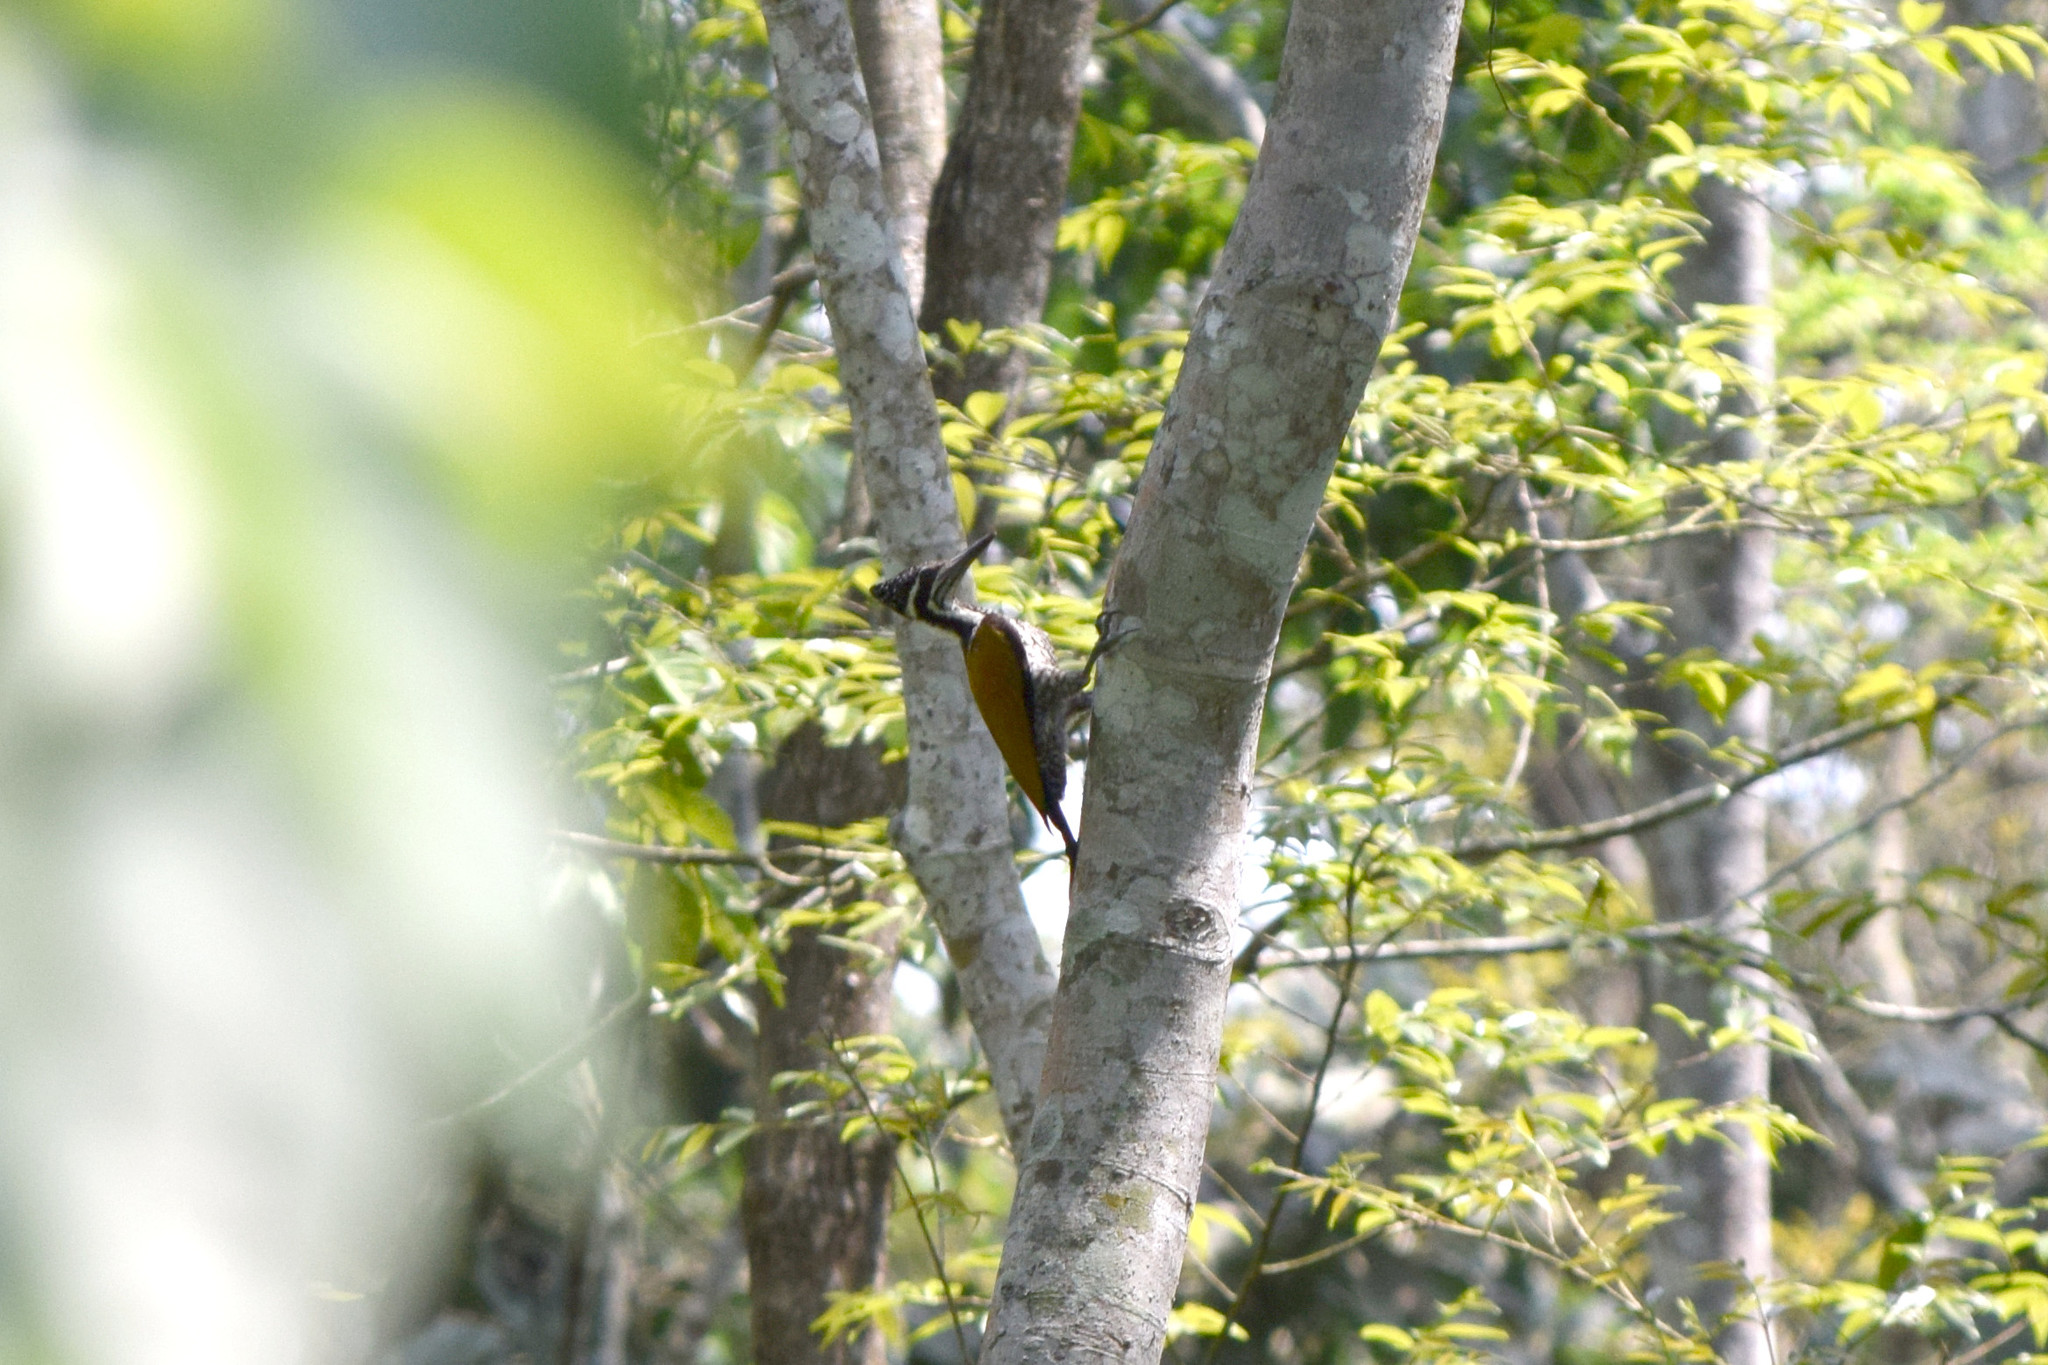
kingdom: Animalia
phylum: Chordata
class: Aves
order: Piciformes
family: Picidae
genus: Dinopium
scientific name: Dinopium benghalense
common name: Black-rumped flameback
